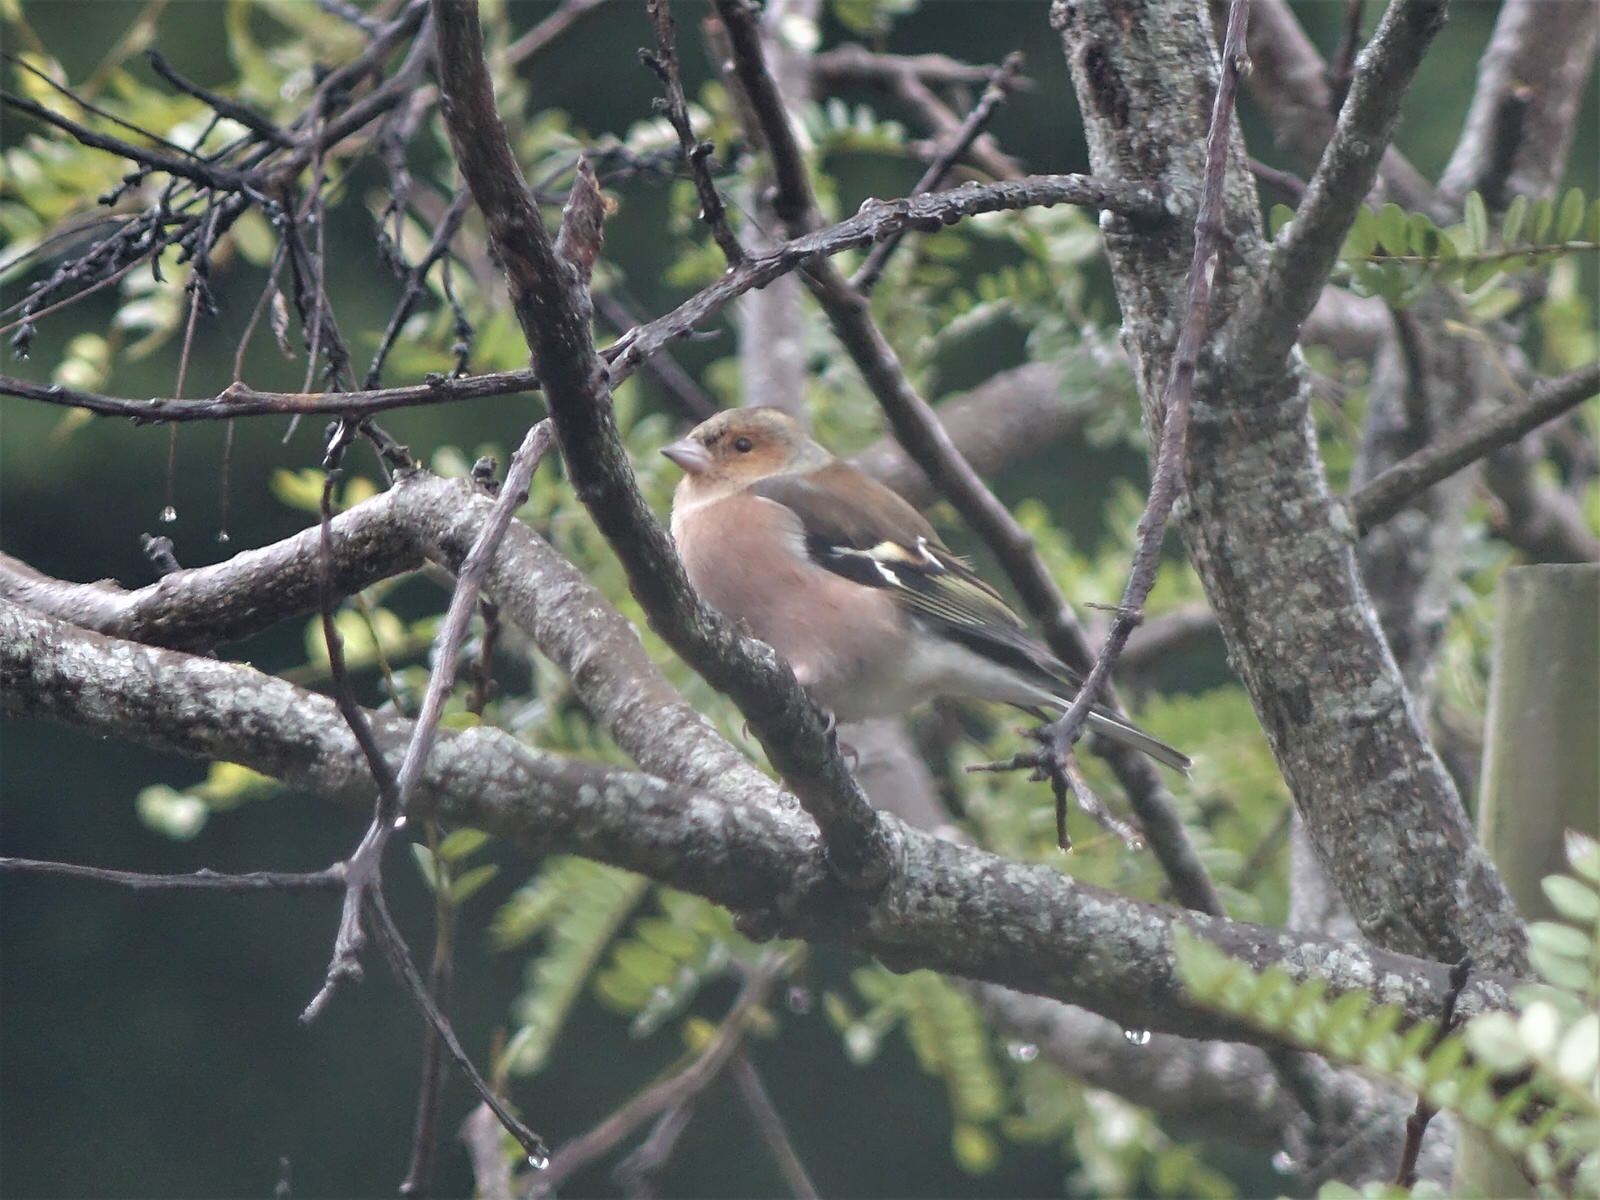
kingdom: Animalia
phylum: Chordata
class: Aves
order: Passeriformes
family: Fringillidae
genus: Fringilla
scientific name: Fringilla coelebs
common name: Common chaffinch
